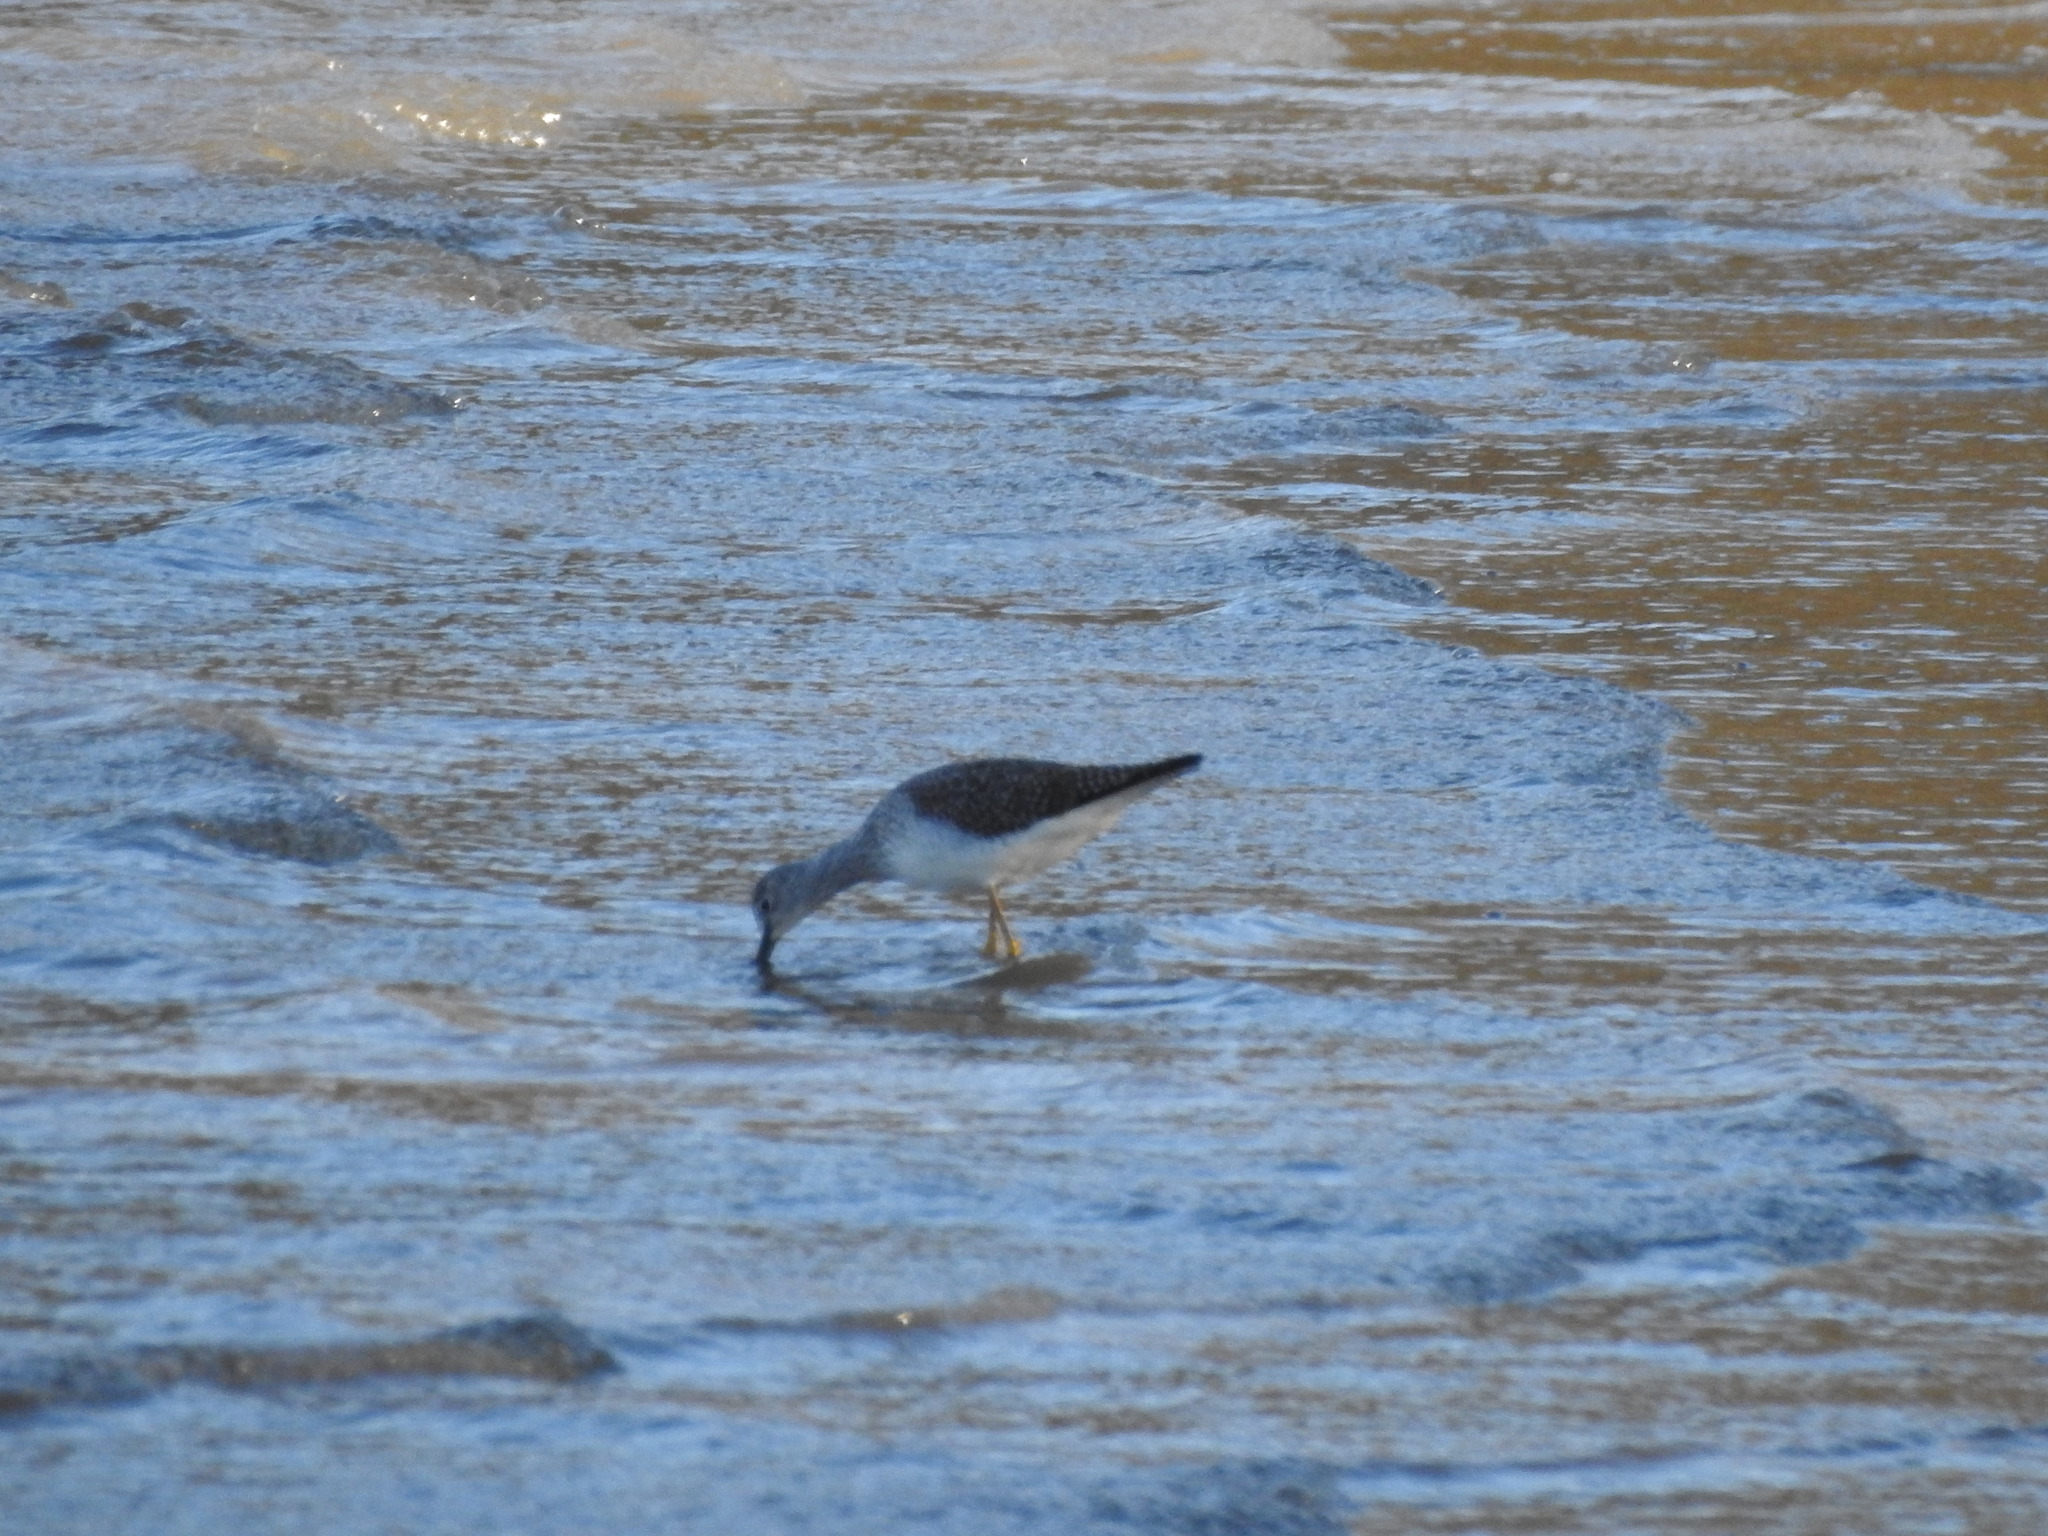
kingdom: Animalia
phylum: Chordata
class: Aves
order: Charadriiformes
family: Scolopacidae
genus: Tringa
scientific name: Tringa melanoleuca
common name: Greater yellowlegs
